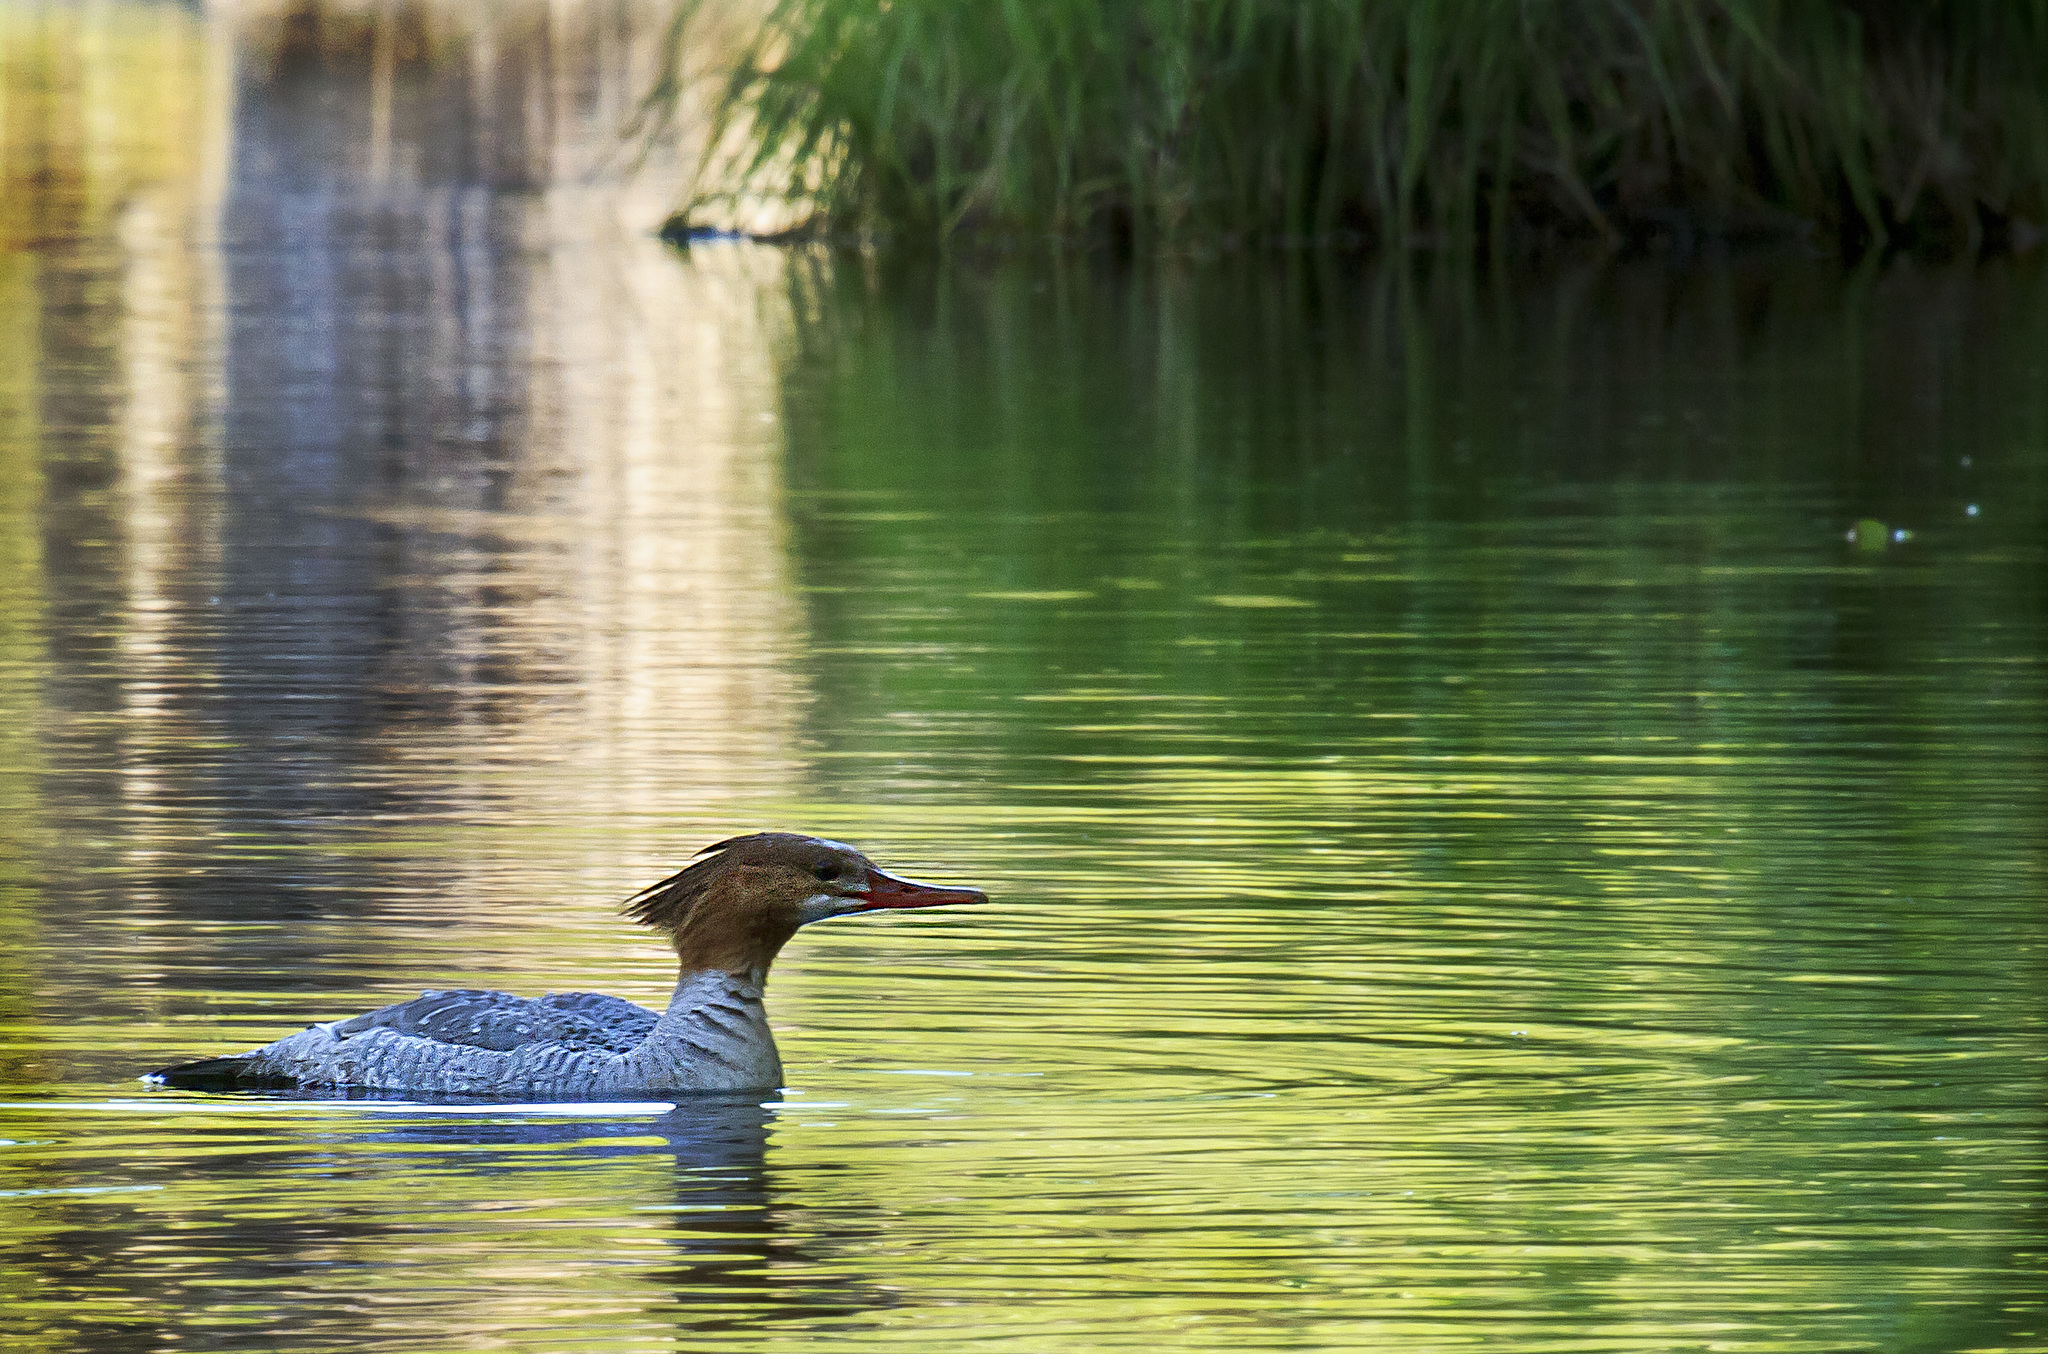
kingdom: Animalia
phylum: Chordata
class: Aves
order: Anseriformes
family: Anatidae
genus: Mergus
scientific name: Mergus merganser
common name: Common merganser
